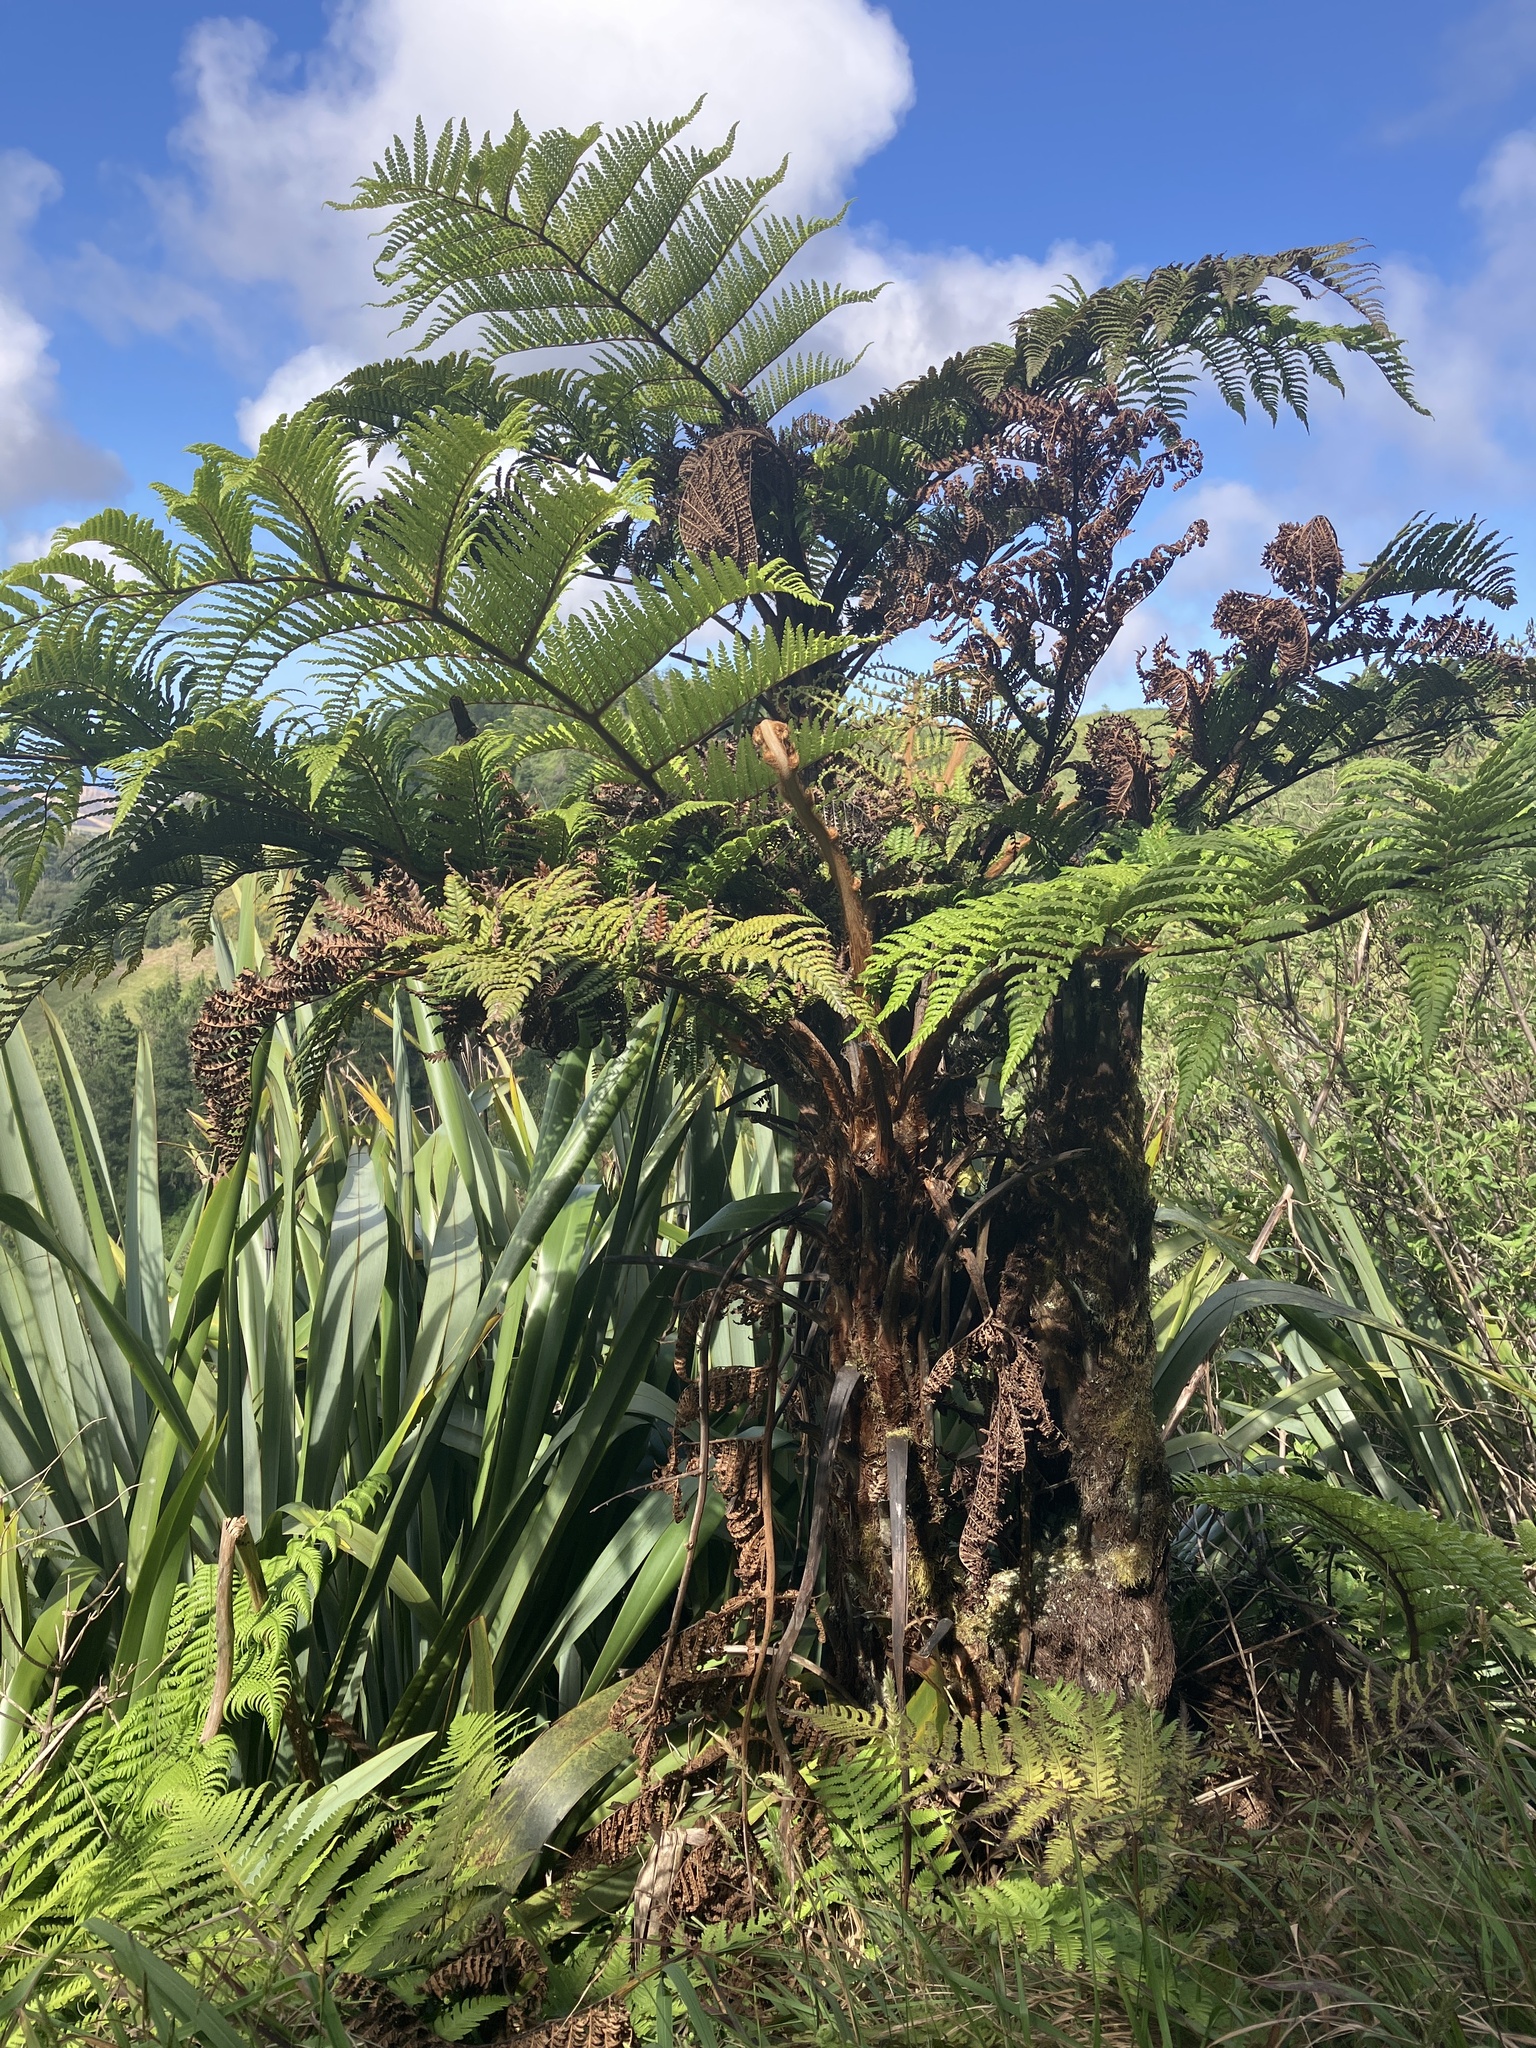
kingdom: Plantae
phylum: Tracheophyta
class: Polypodiopsida
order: Cyatheales
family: Dicksoniaceae
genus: Dicksonia
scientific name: Dicksonia arborescens
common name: St helena tree fern
